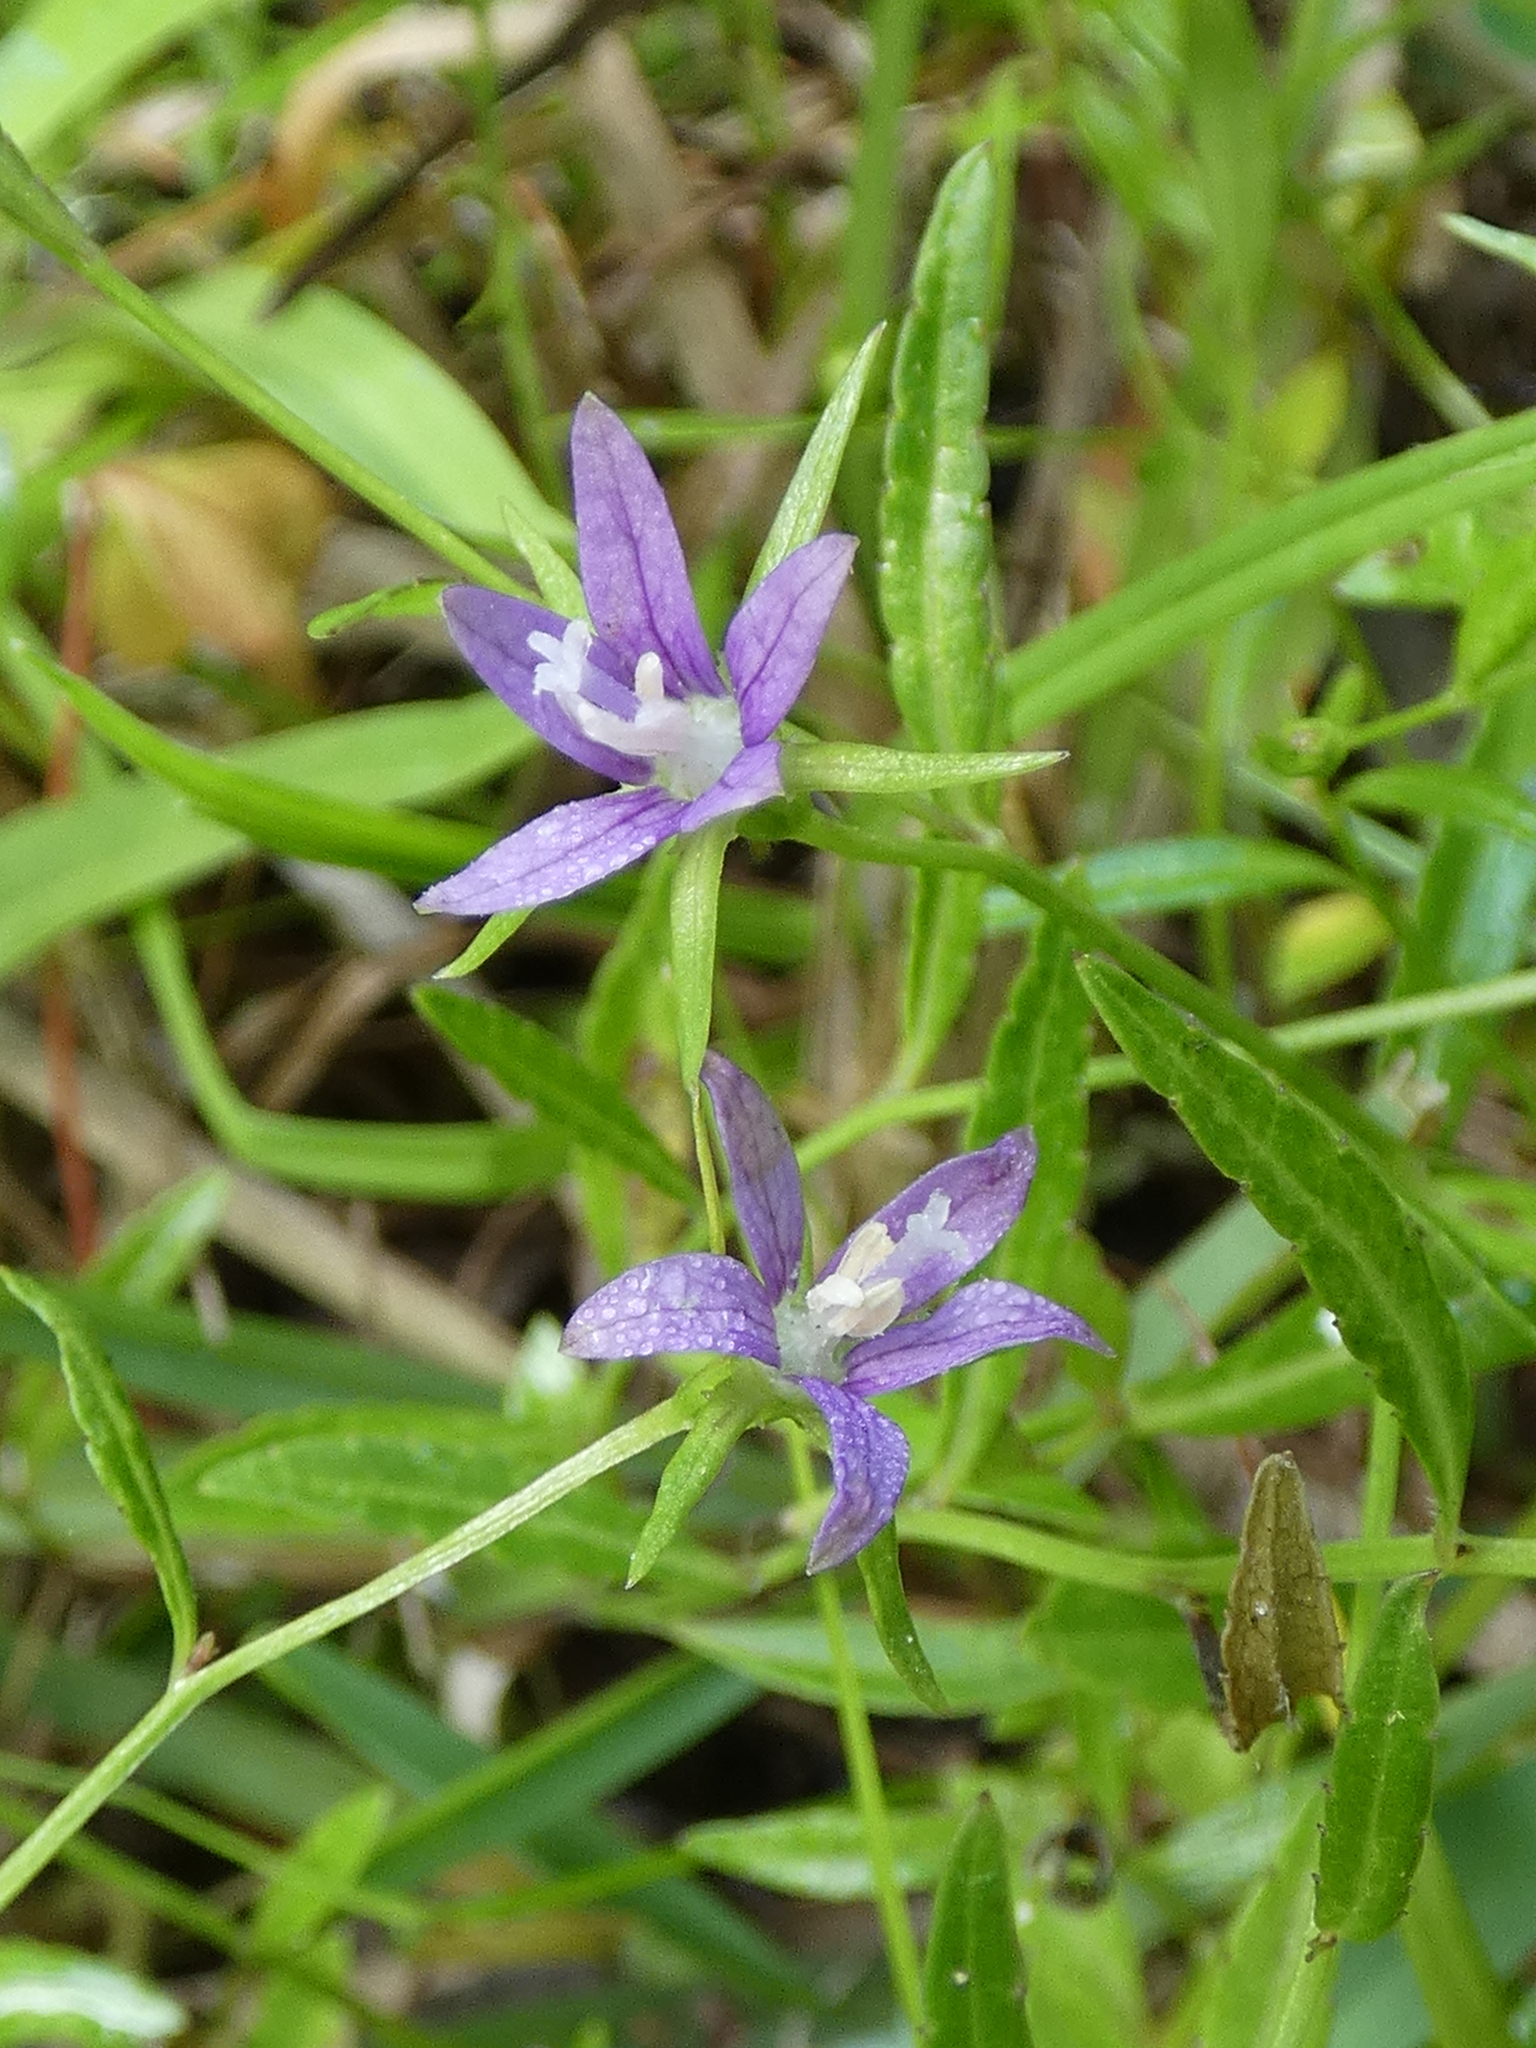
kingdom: Plantae
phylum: Tracheophyta
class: Magnoliopsida
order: Asterales
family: Campanulaceae
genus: Rotanthella
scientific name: Rotanthella floridana
